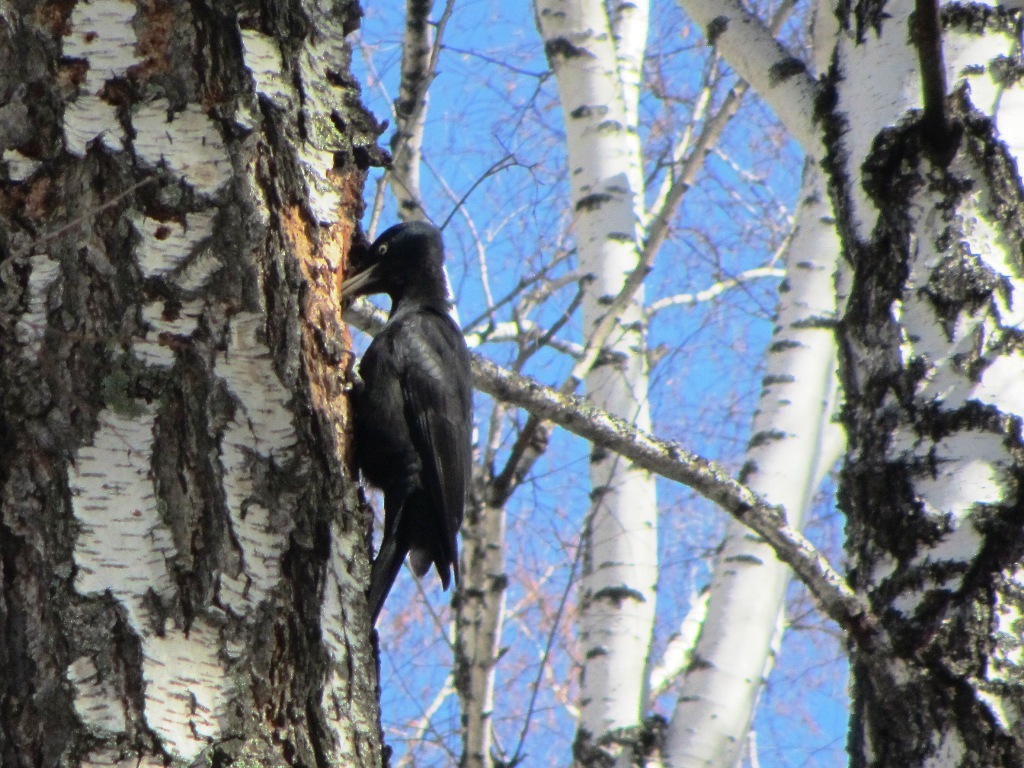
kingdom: Animalia
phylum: Chordata
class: Aves
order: Piciformes
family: Picidae
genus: Dryocopus
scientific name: Dryocopus martius
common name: Black woodpecker
